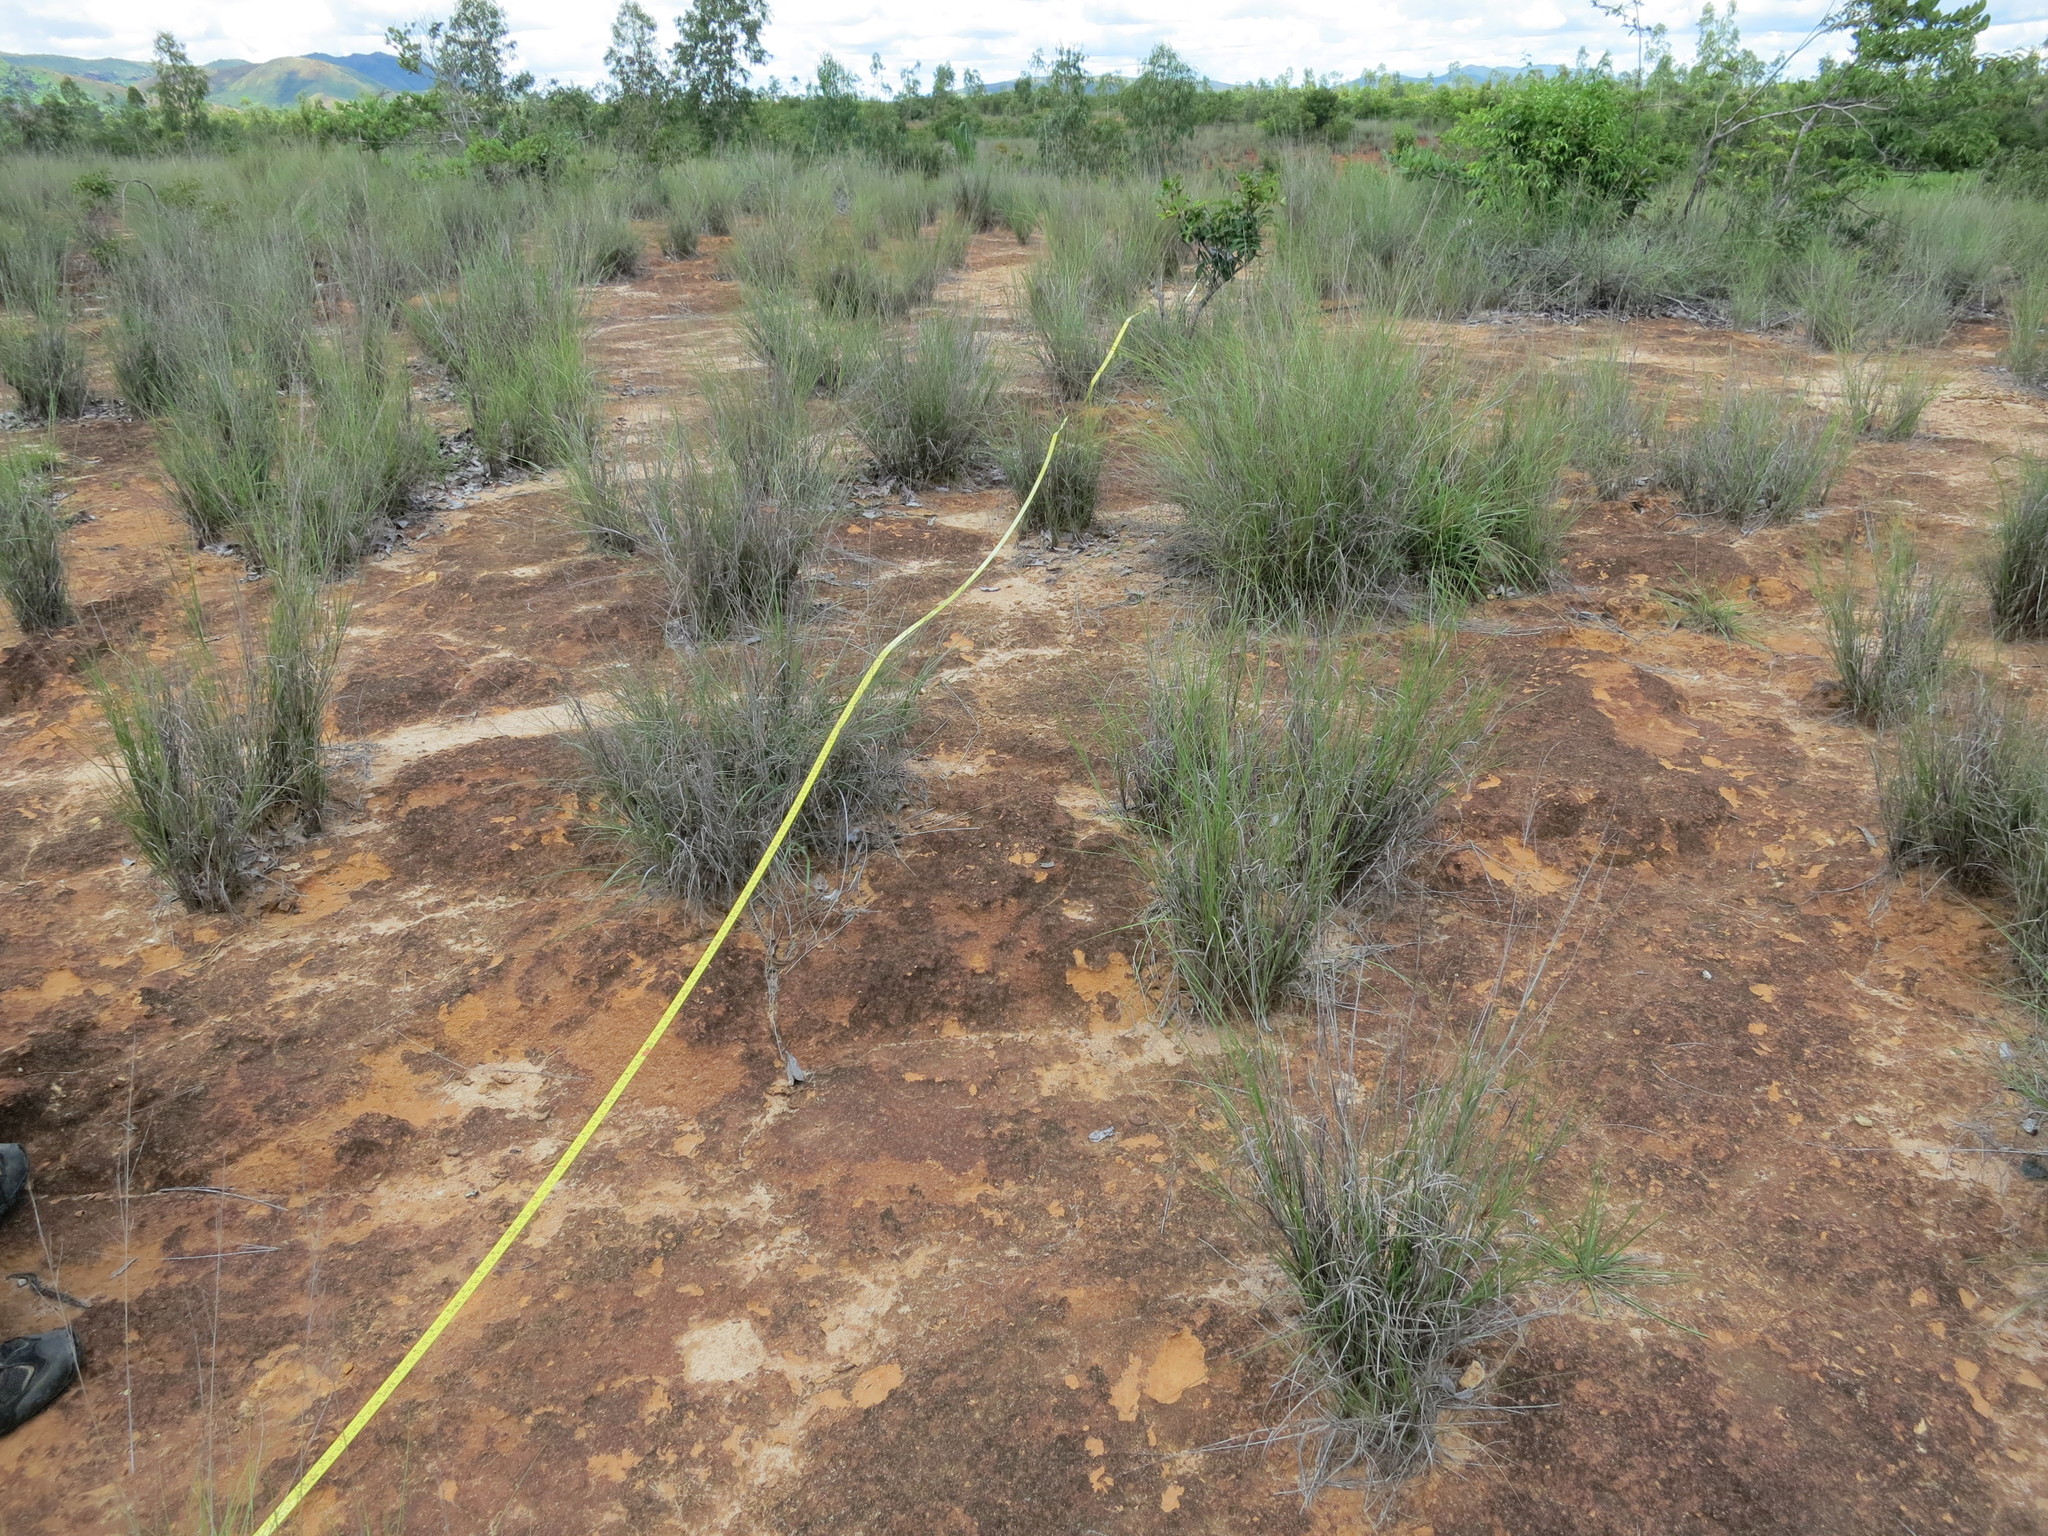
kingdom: Plantae
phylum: Tracheophyta
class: Liliopsida
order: Poales
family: Poaceae
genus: Aristida
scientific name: Aristida rufescens
